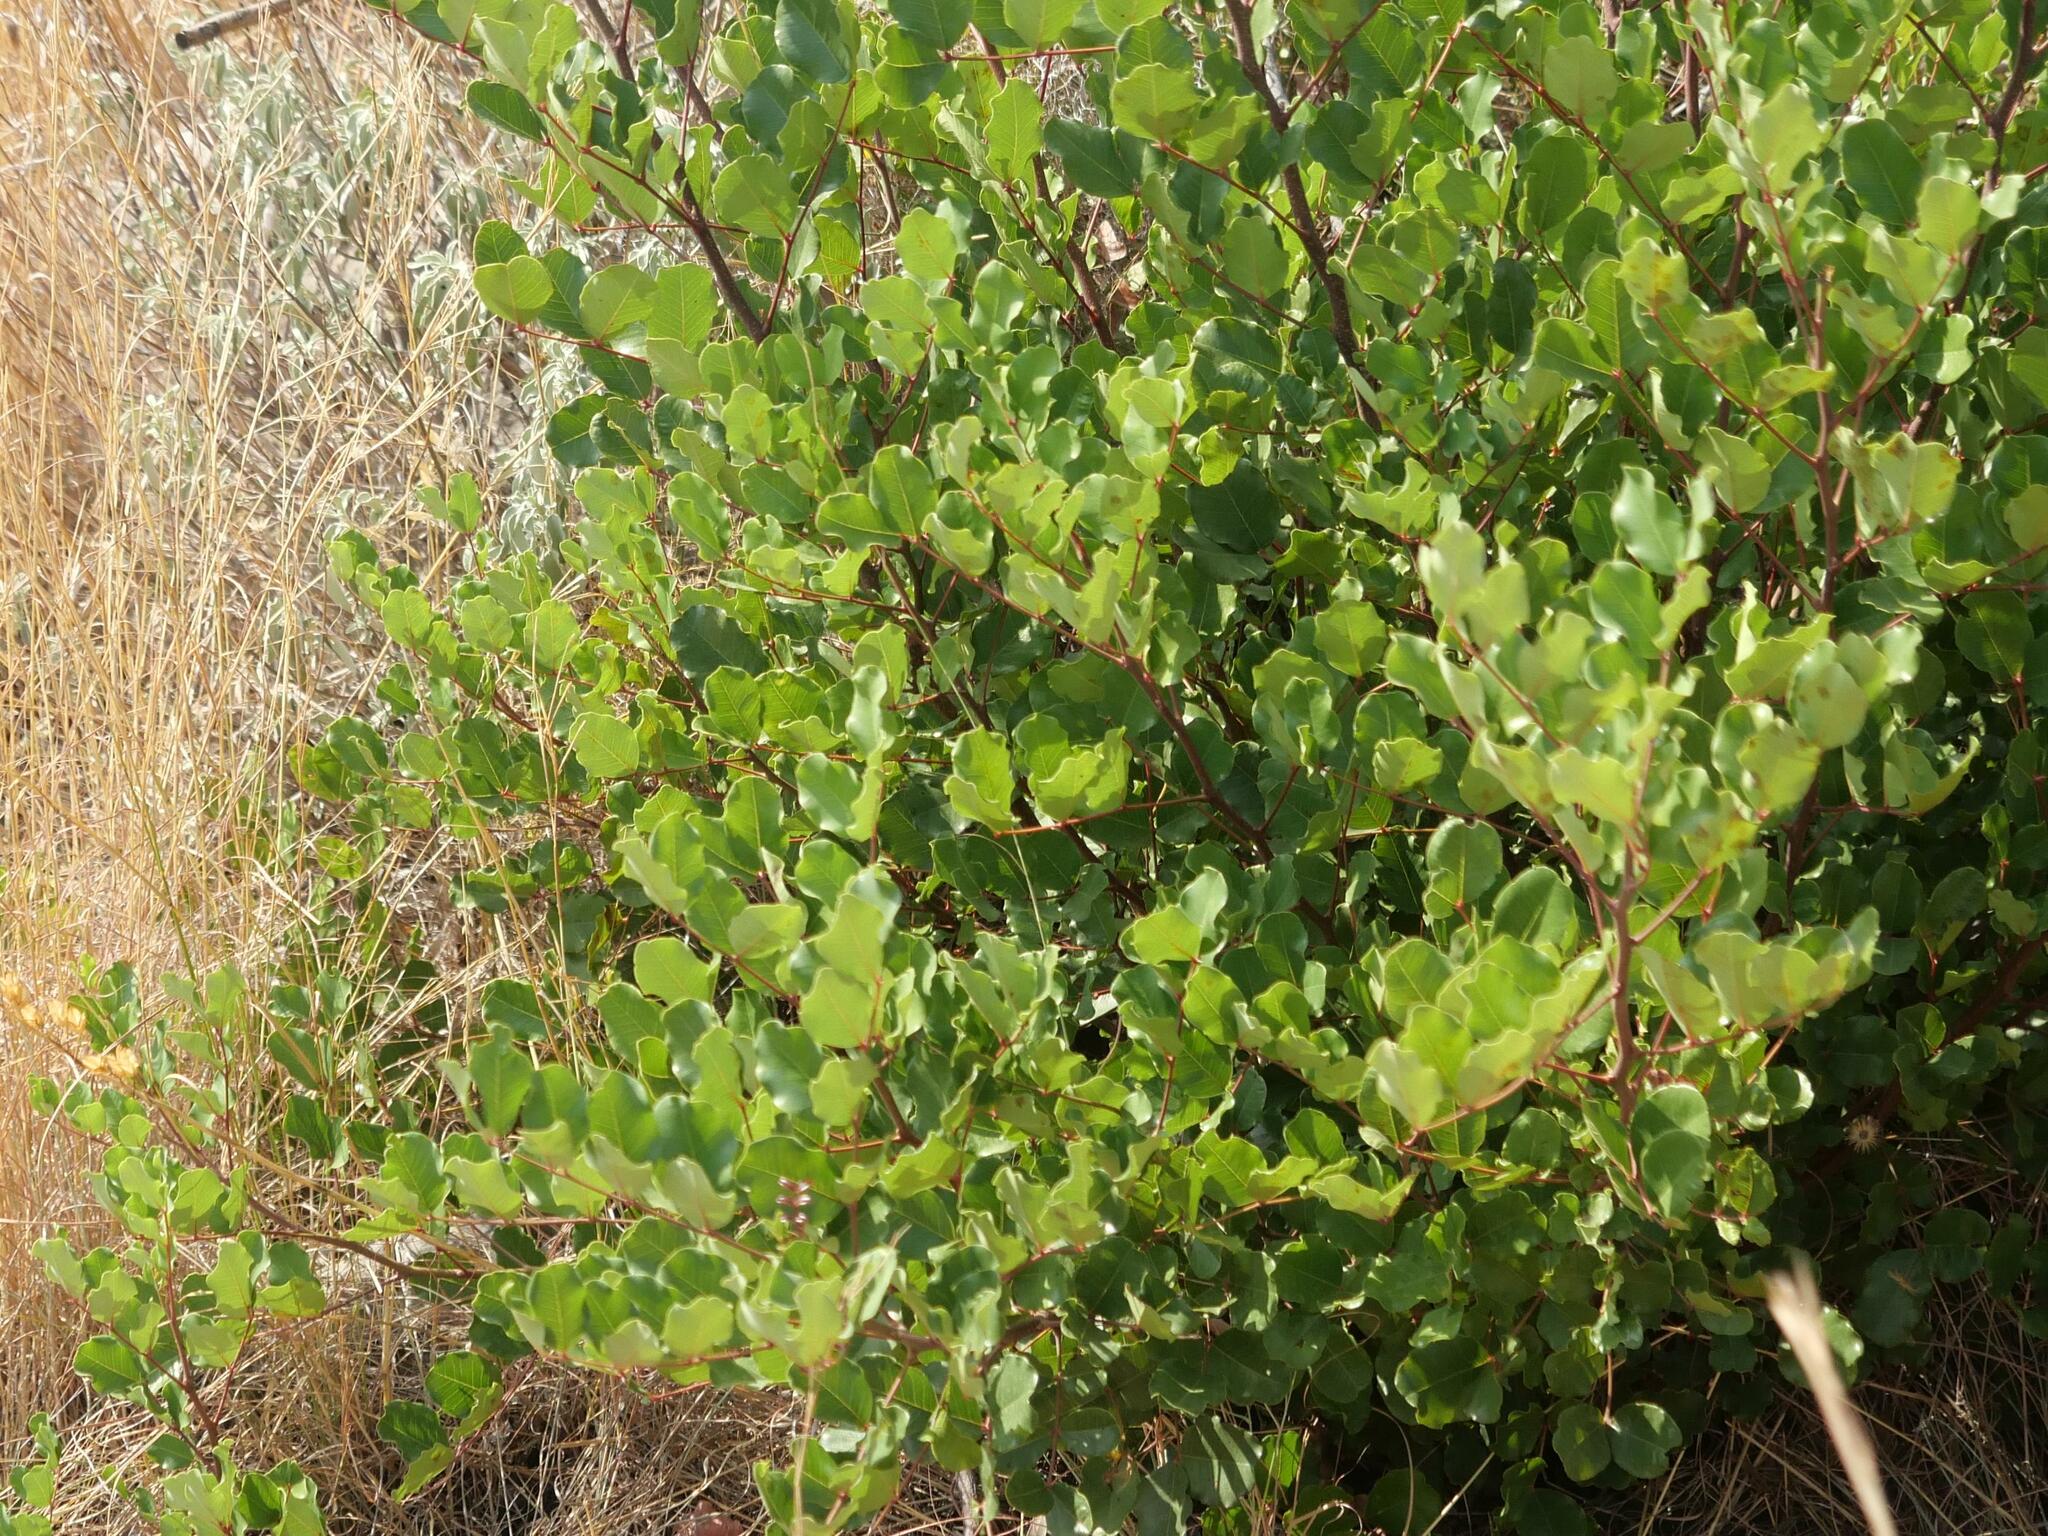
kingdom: Plantae
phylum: Tracheophyta
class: Magnoliopsida
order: Fabales
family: Fabaceae
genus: Ceratonia
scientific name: Ceratonia siliqua
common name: Carob
